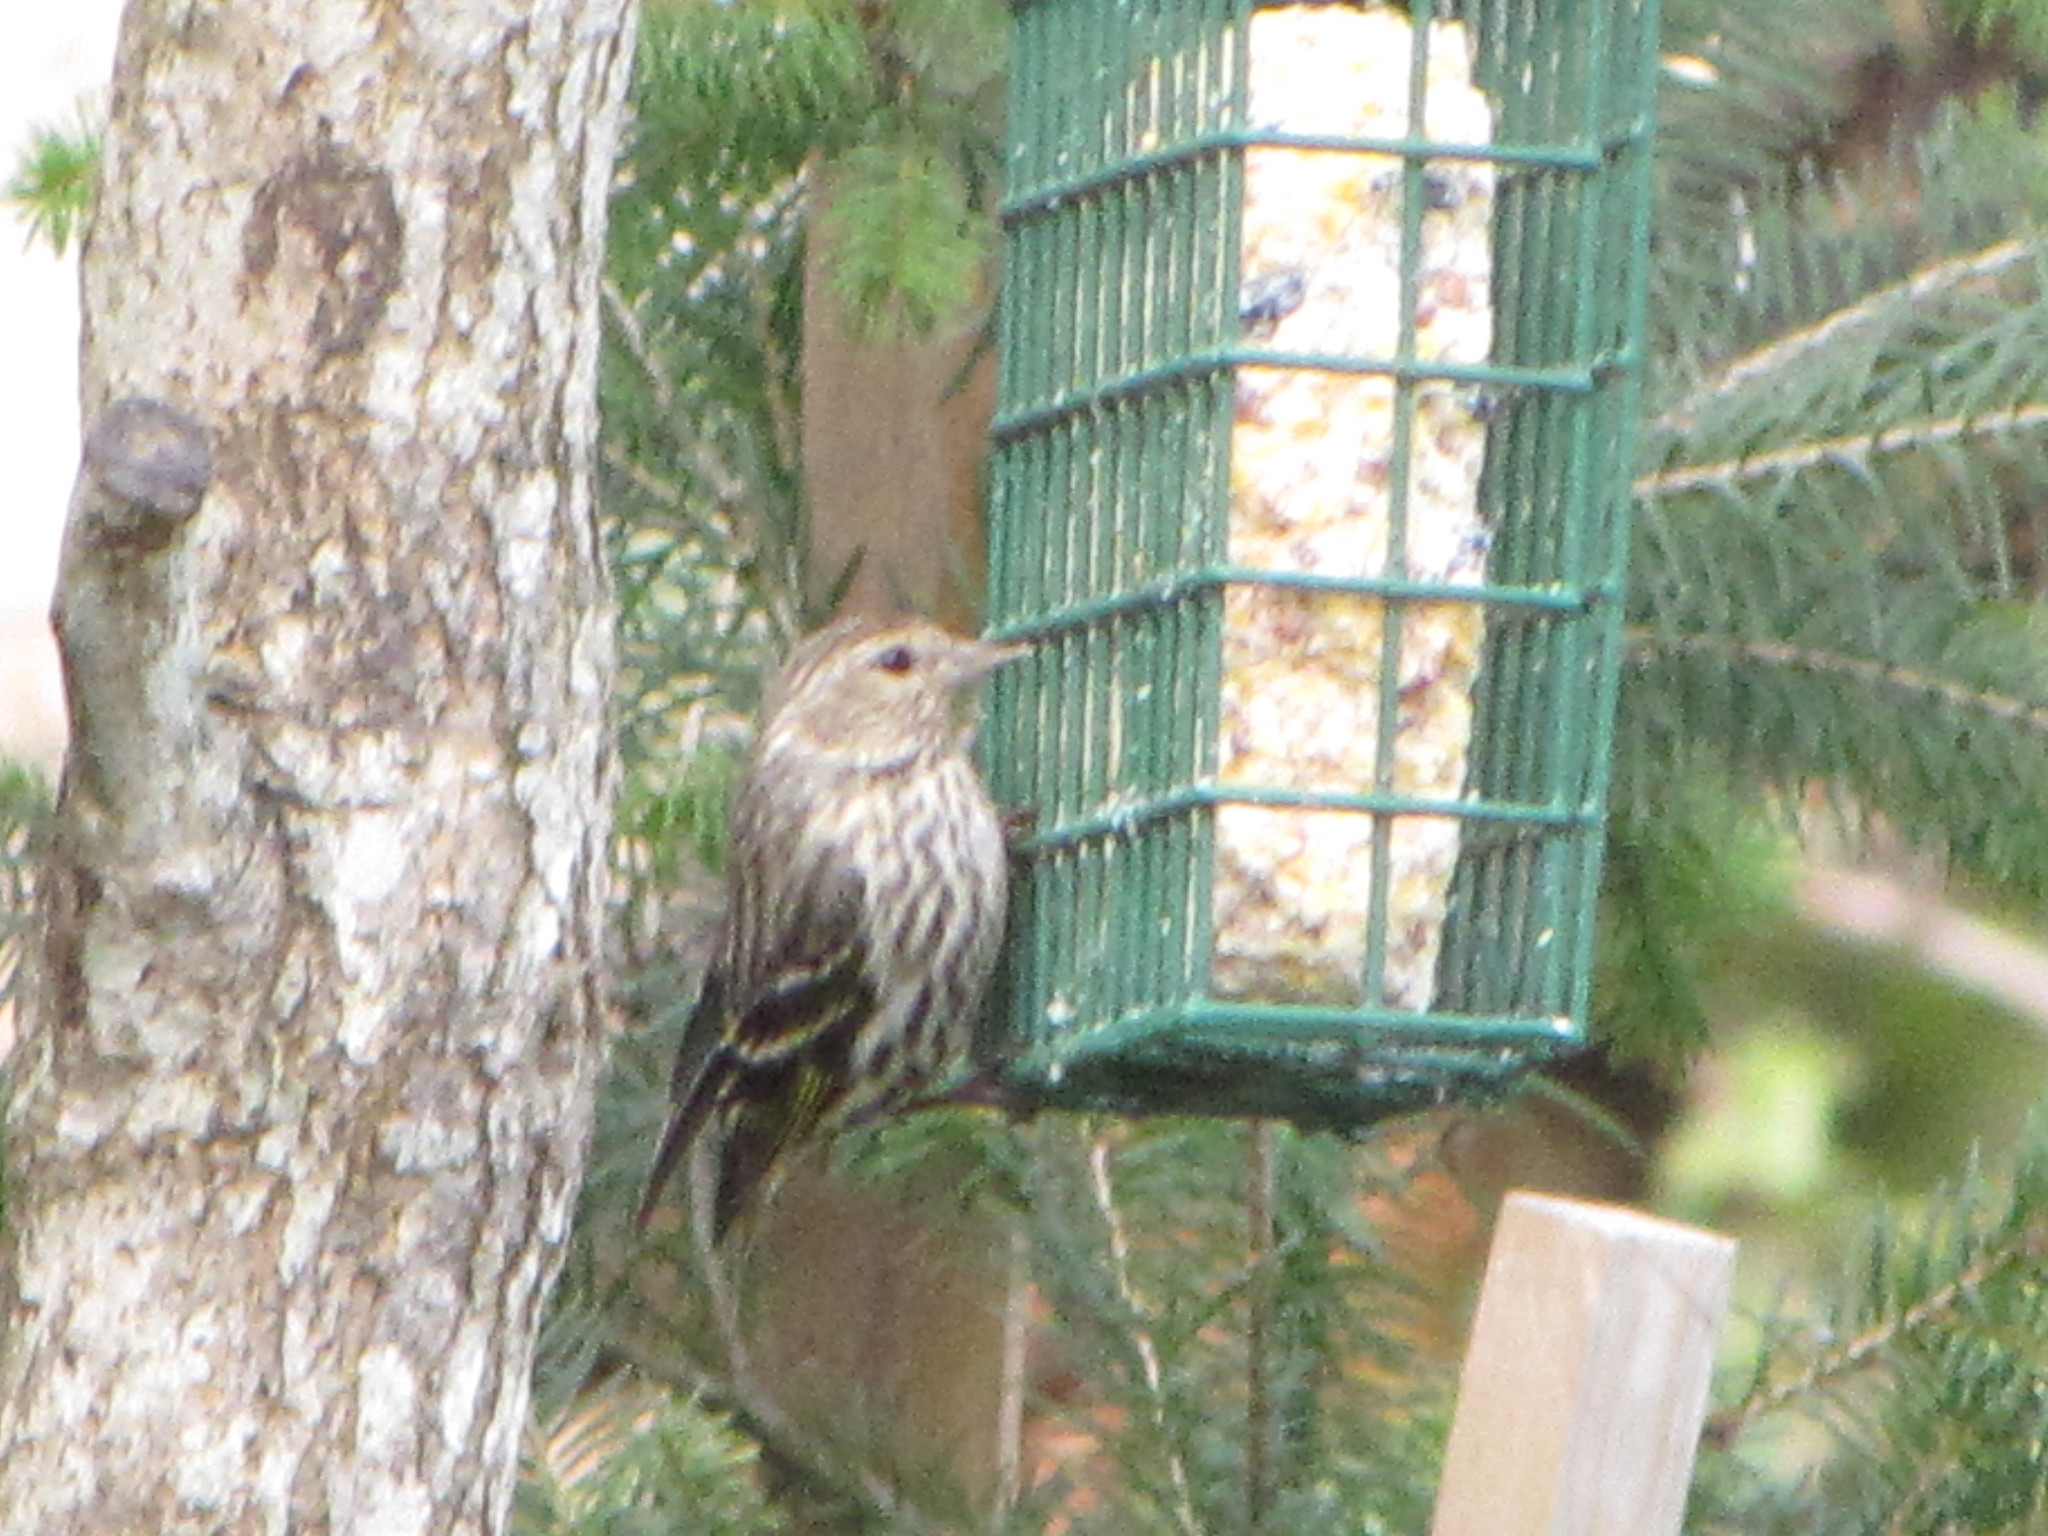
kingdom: Animalia
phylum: Chordata
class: Aves
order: Passeriformes
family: Fringillidae
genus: Spinus
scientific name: Spinus pinus
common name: Pine siskin
